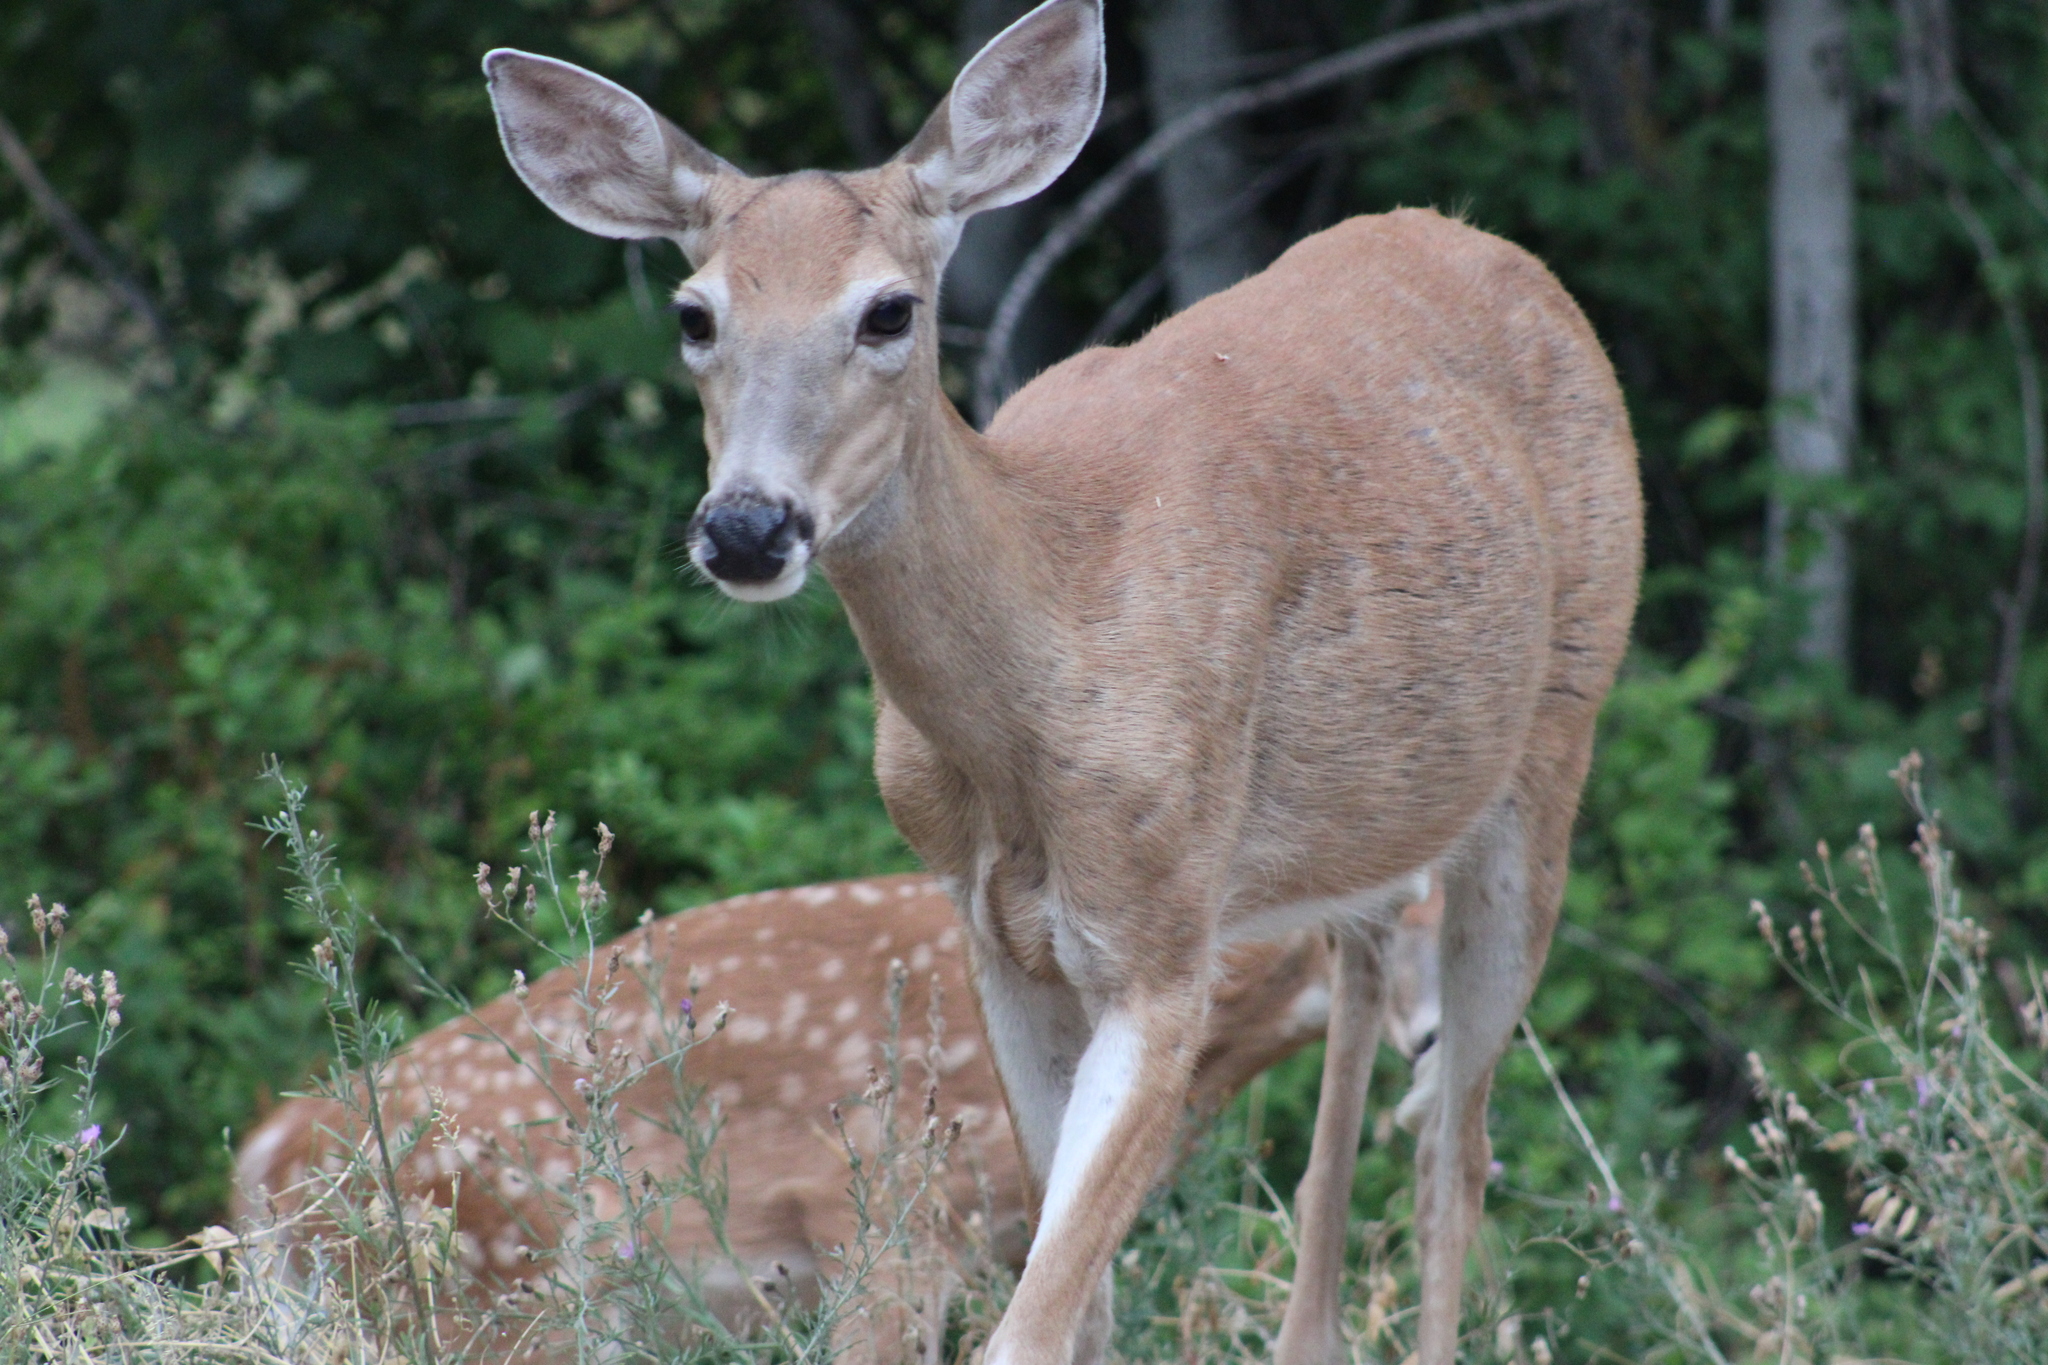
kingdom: Animalia
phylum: Chordata
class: Mammalia
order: Artiodactyla
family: Cervidae
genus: Odocoileus
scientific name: Odocoileus virginianus
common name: White-tailed deer
